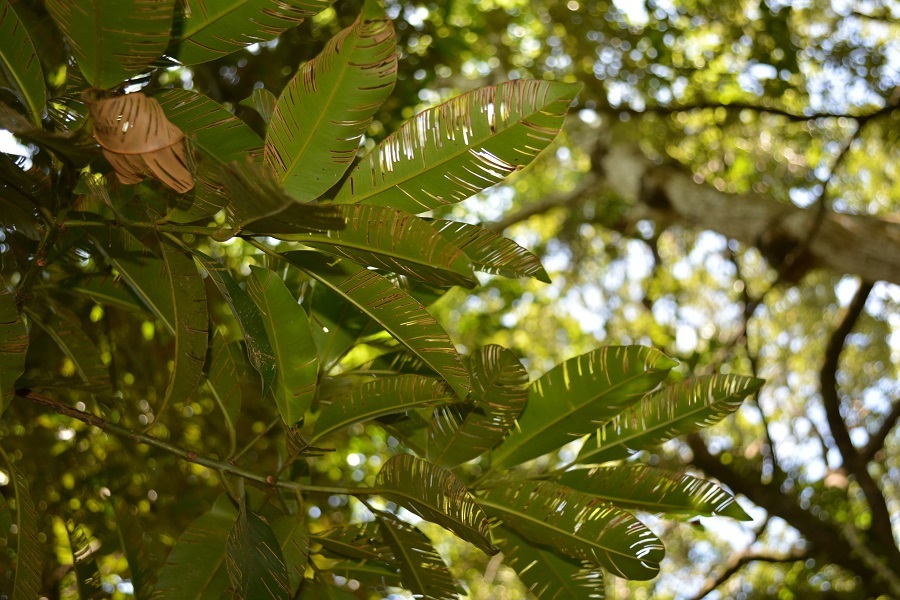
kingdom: Plantae
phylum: Tracheophyta
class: Magnoliopsida
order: Malpighiales
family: Calophyllaceae
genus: Calophyllum
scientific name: Calophyllum brasiliense
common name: Santa maria
